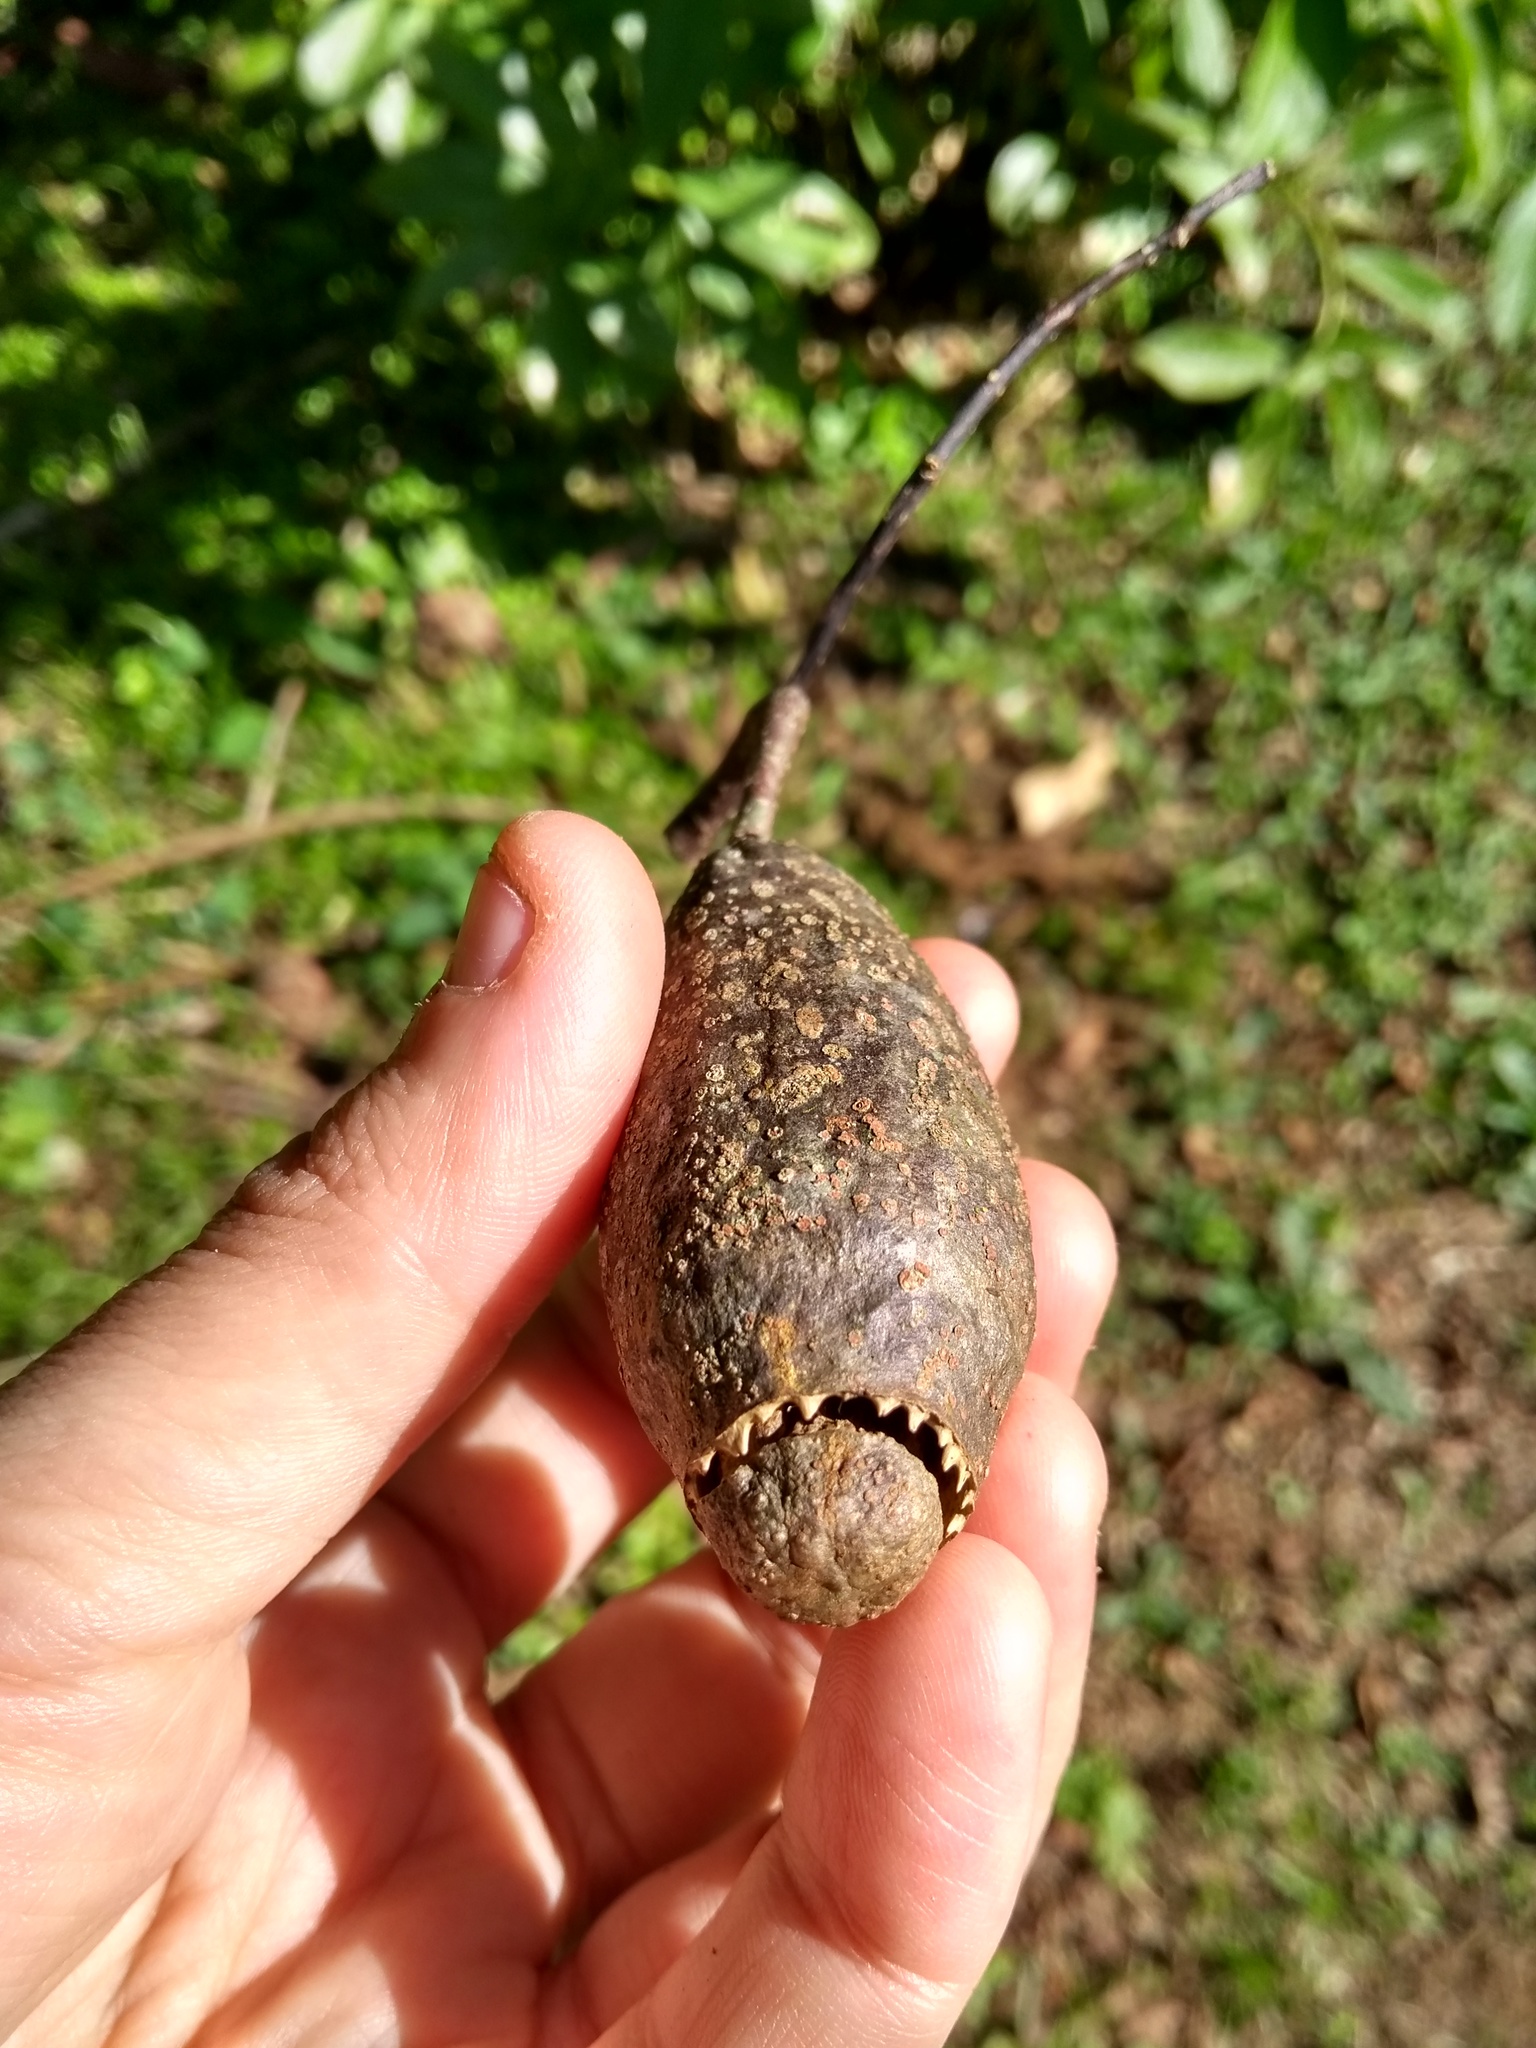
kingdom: Plantae
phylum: Tracheophyta
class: Magnoliopsida
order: Ericales
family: Lecythidaceae
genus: Cariniana
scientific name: Cariniana estrellensis
